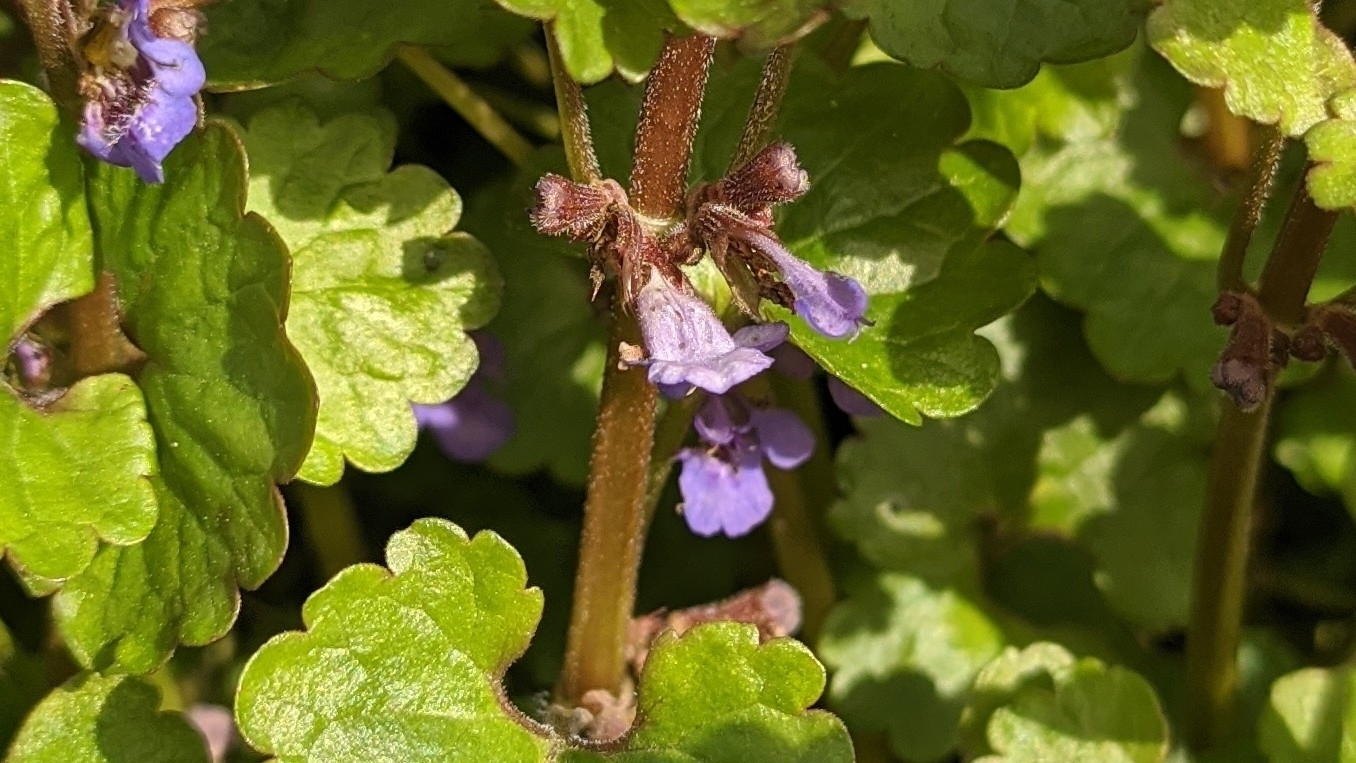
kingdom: Plantae
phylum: Tracheophyta
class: Magnoliopsida
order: Lamiales
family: Lamiaceae
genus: Glechoma
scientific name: Glechoma hederacea
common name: Ground ivy
